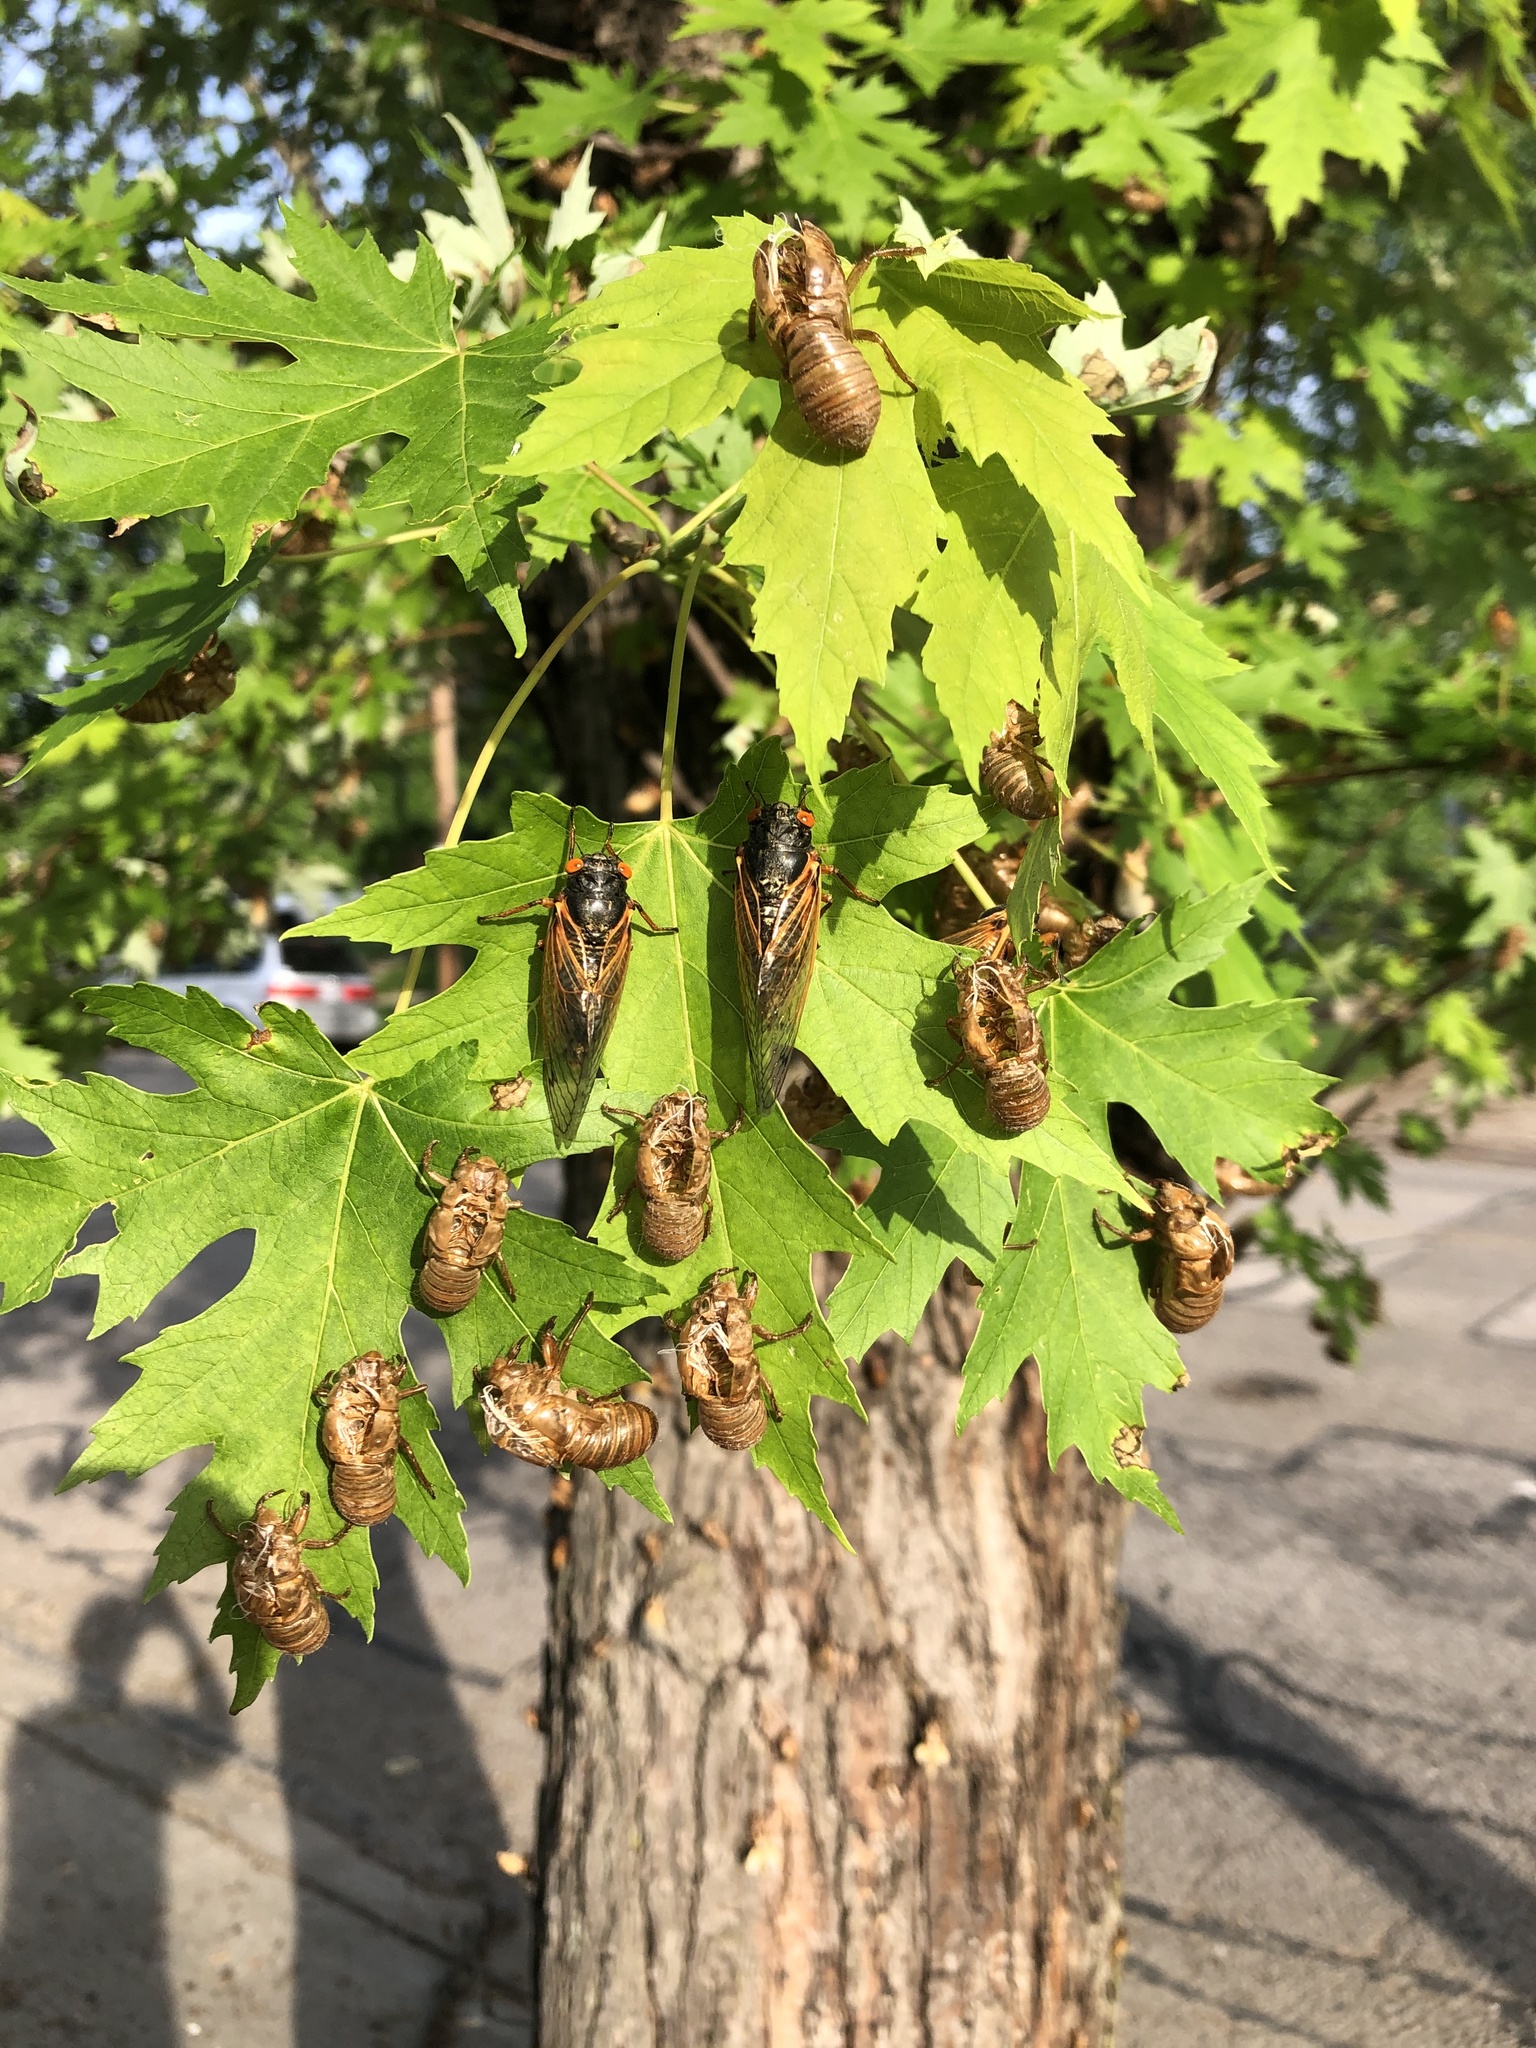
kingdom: Animalia
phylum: Arthropoda
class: Insecta
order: Hemiptera
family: Cicadidae
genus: Magicicada
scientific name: Magicicada
